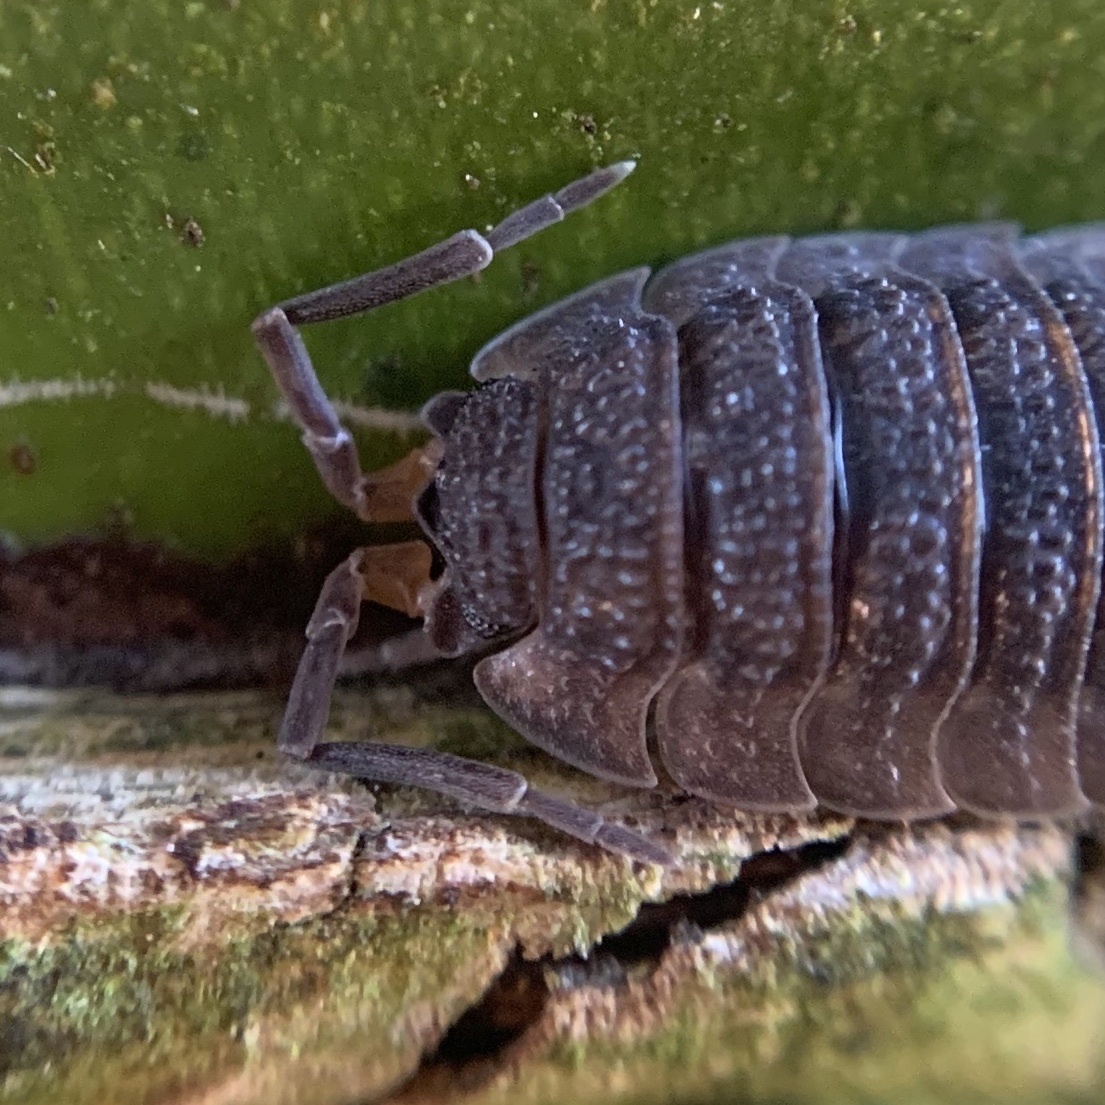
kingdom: Animalia
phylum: Arthropoda
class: Malacostraca
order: Isopoda
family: Porcellionidae
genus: Porcellio
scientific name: Porcellio scaber
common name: Common rough woodlouse
